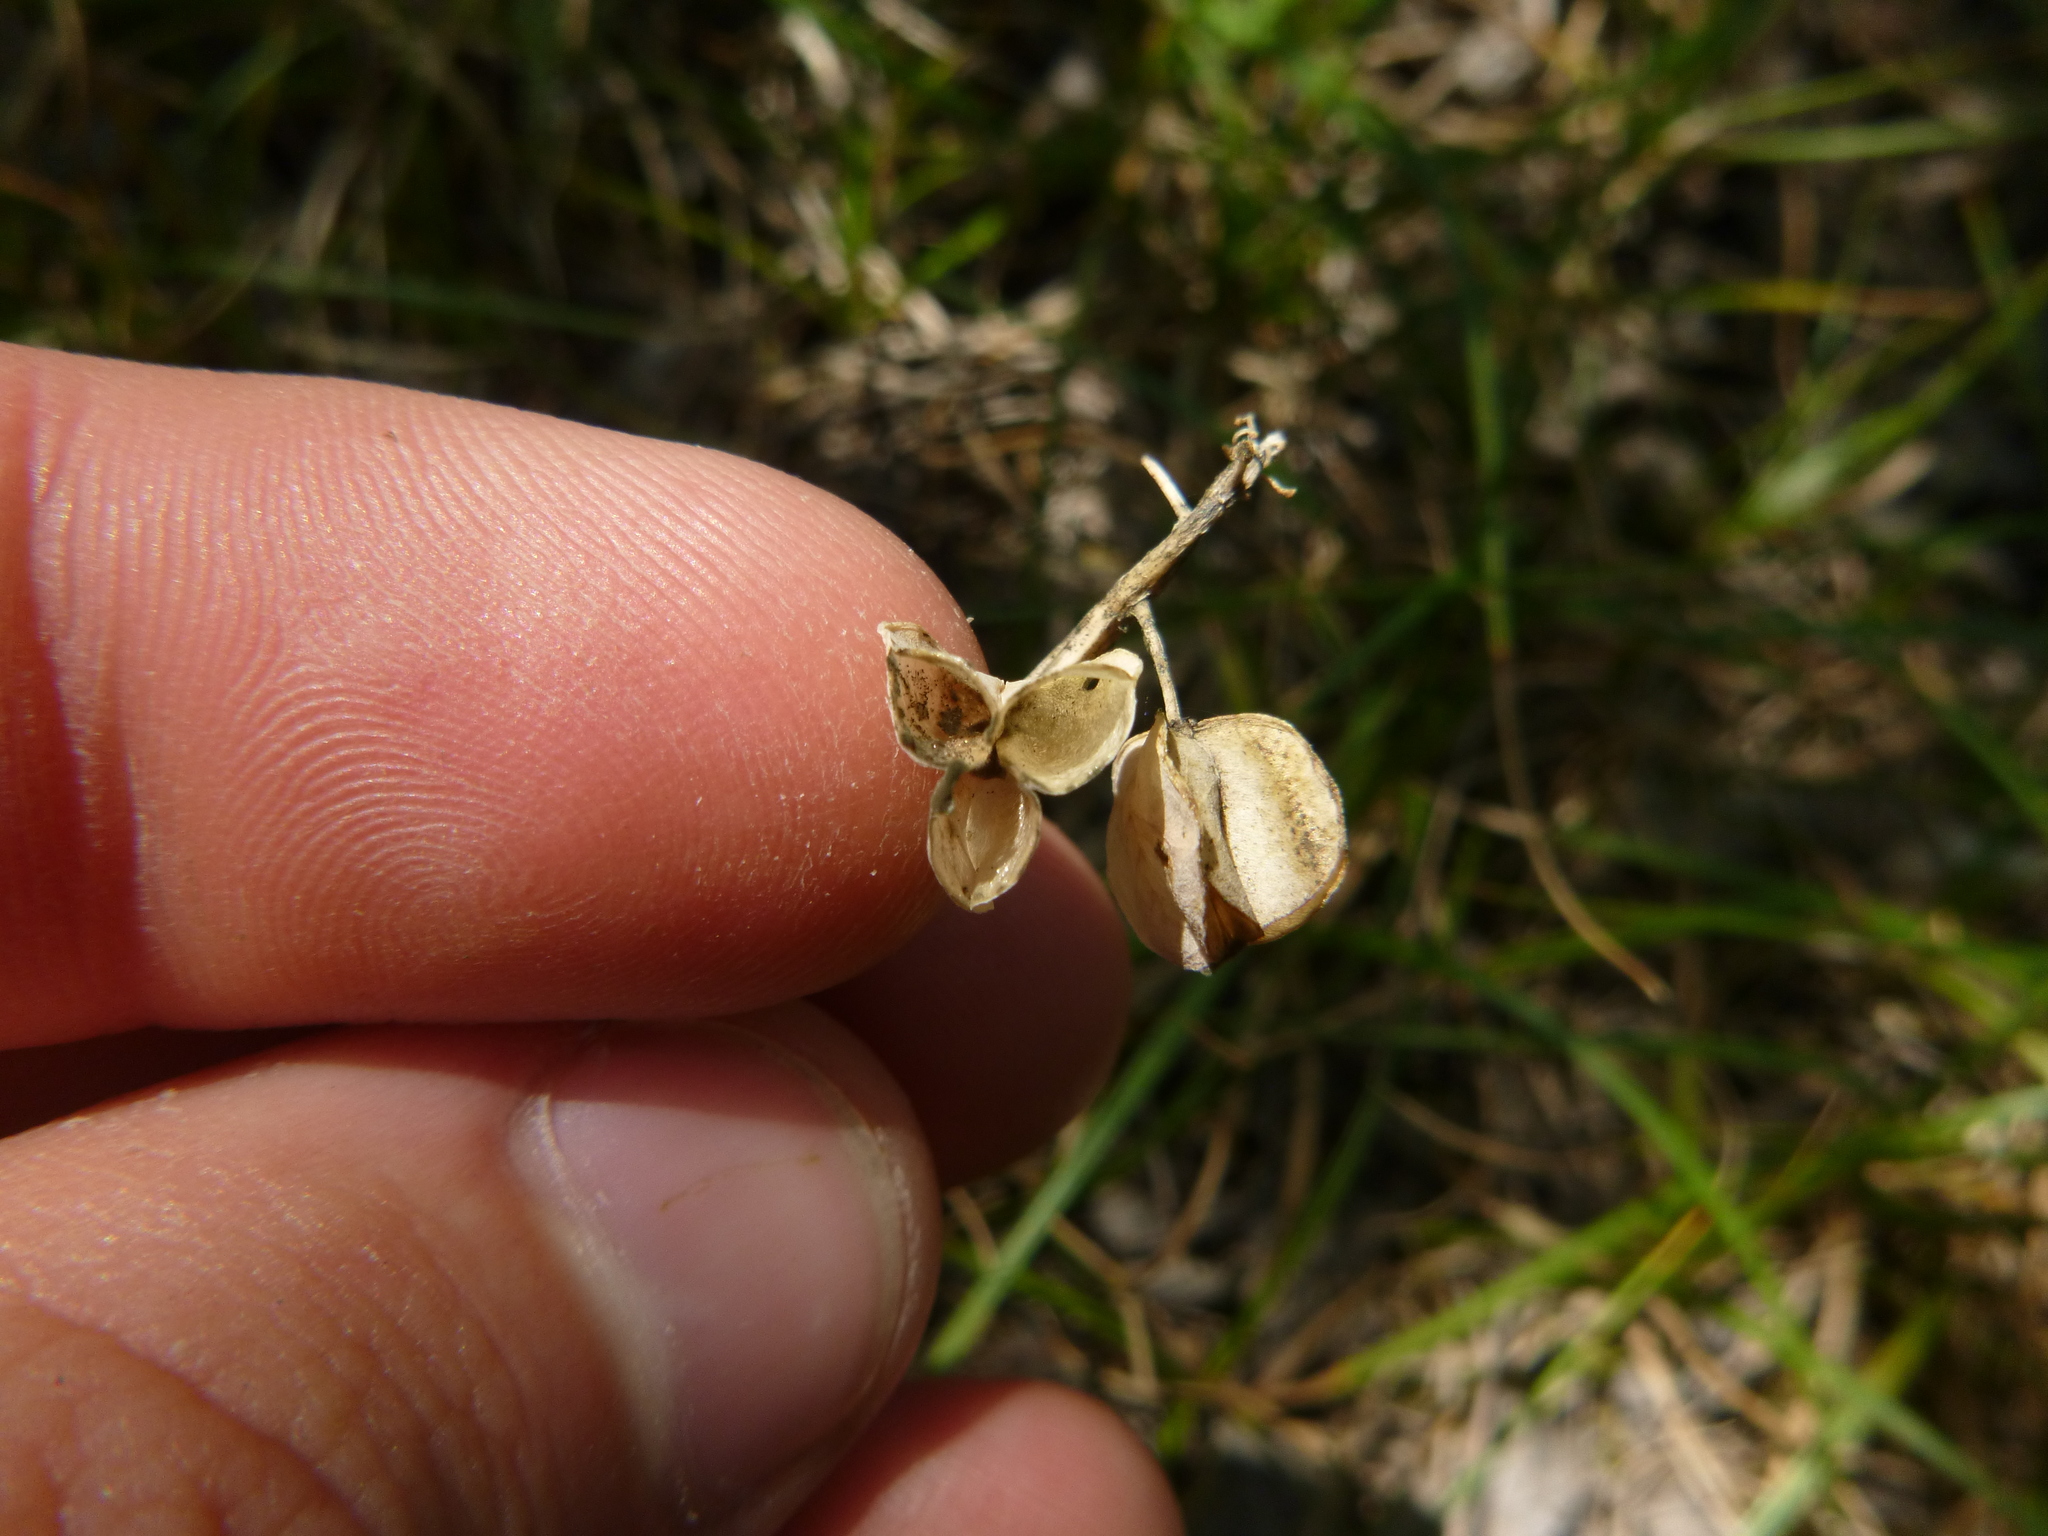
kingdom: Plantae
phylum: Tracheophyta
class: Liliopsida
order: Asparagales
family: Asparagaceae
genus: Muscari
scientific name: Muscari neglectum
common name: Grape-hyacinth
